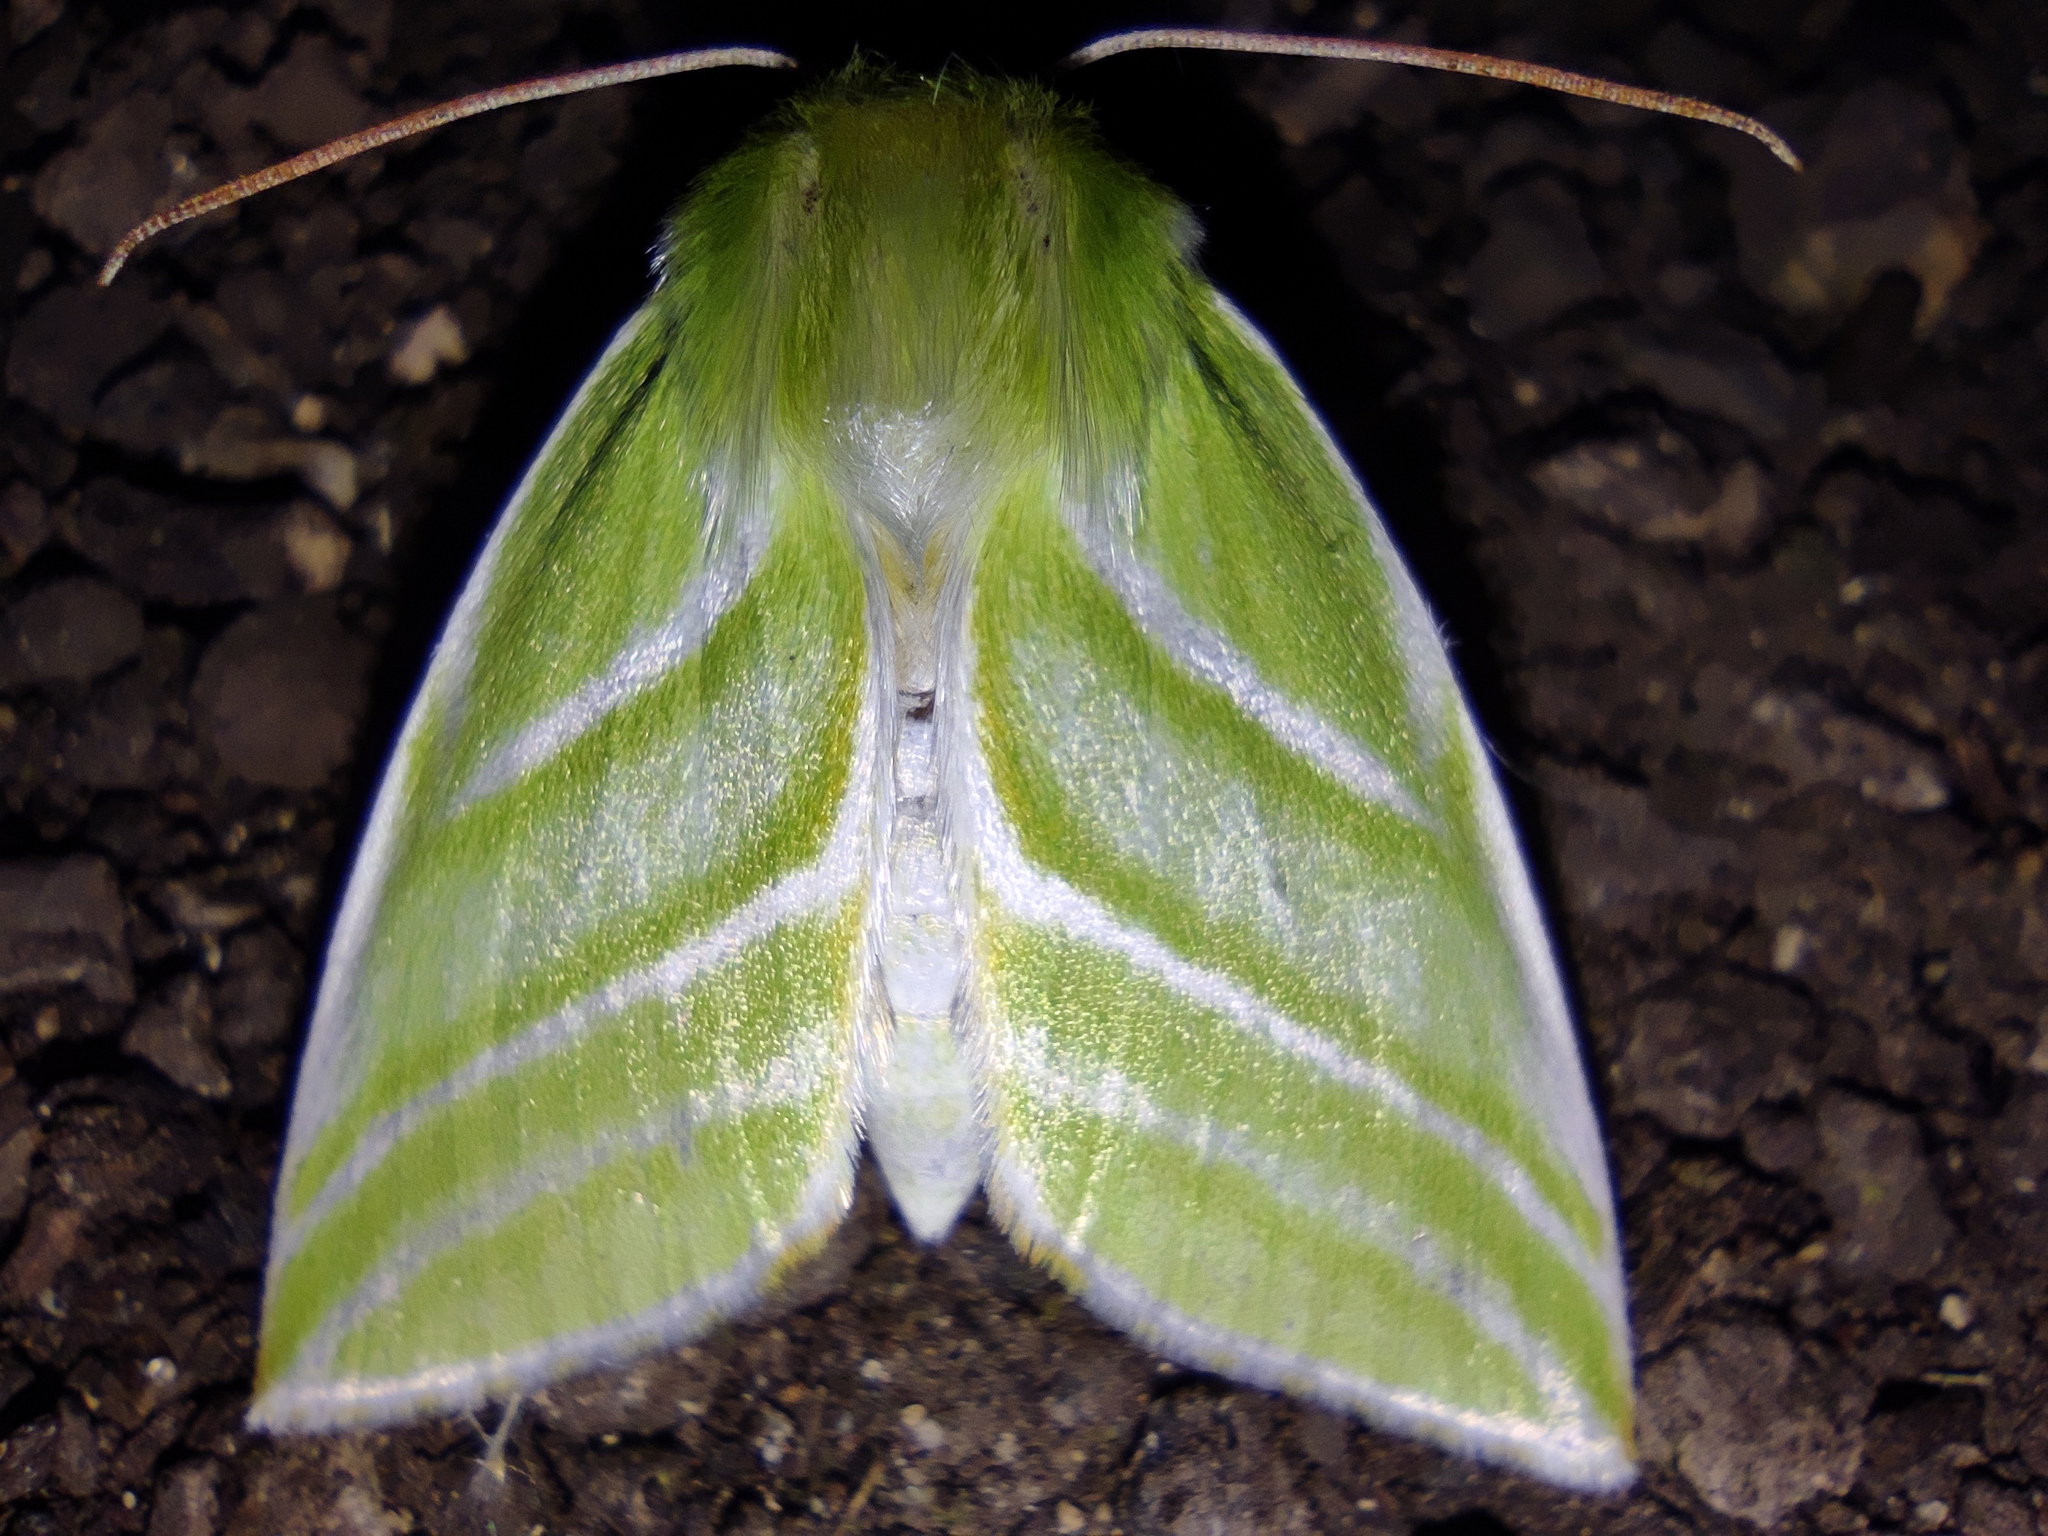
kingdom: Animalia
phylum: Arthropoda
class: Insecta
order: Lepidoptera
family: Nolidae
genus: Pseudoips
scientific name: Pseudoips prasinana
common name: Green silver-lines
